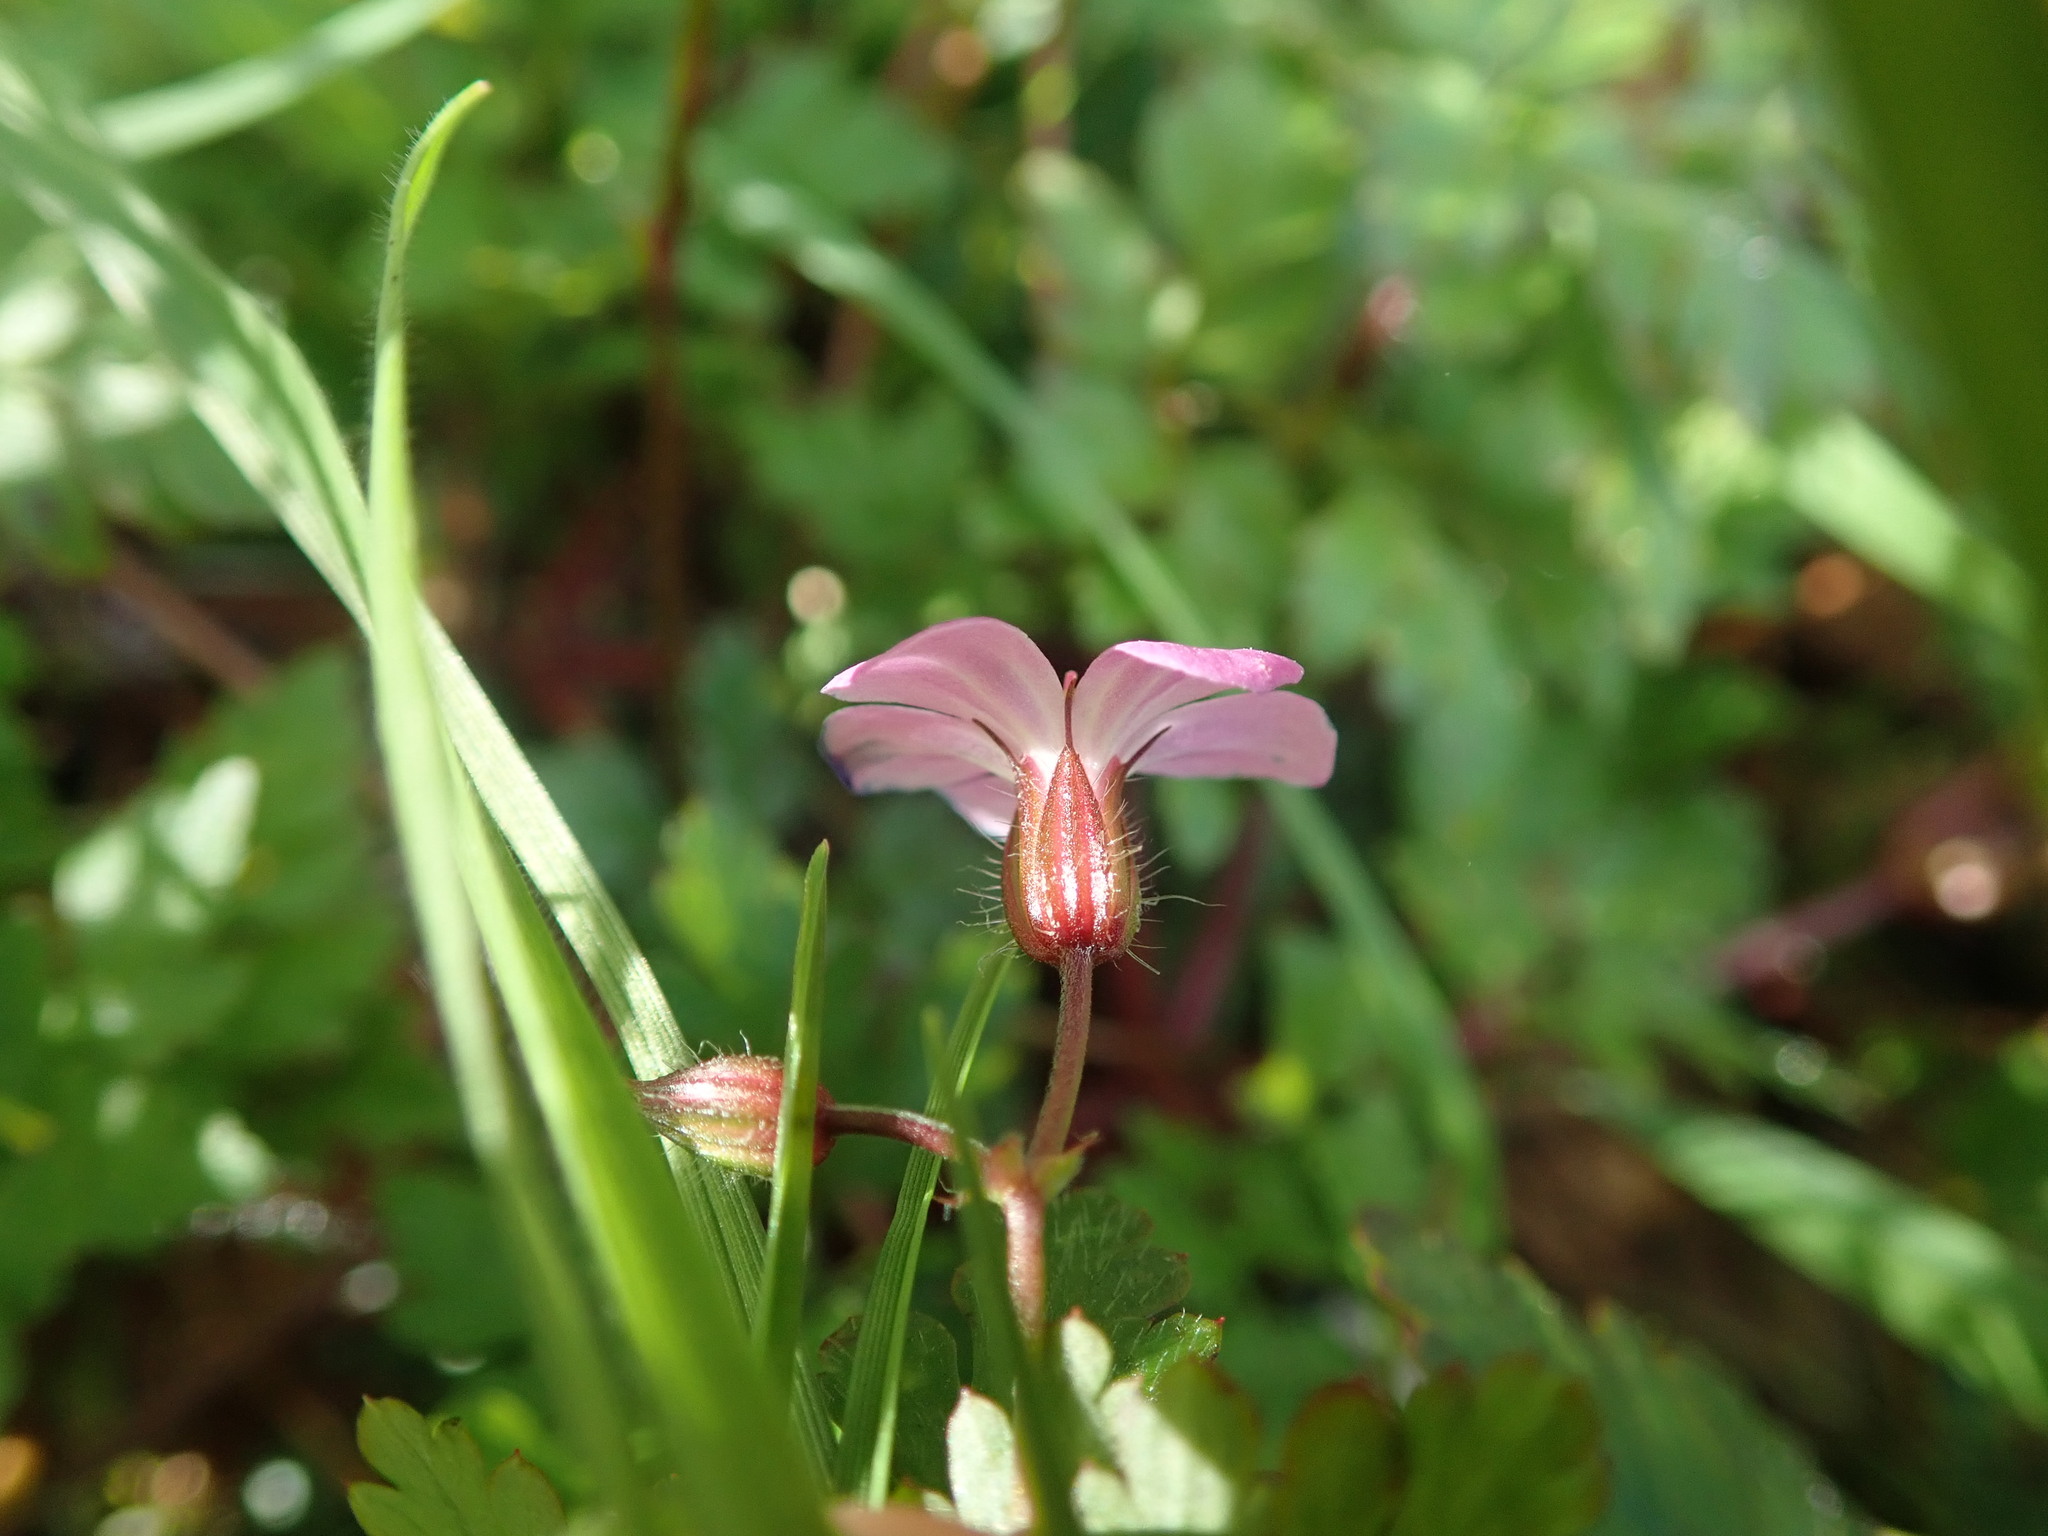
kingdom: Plantae
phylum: Tracheophyta
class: Magnoliopsida
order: Geraniales
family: Geraniaceae
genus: Geranium
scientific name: Geranium robertianum
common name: Herb-robert
